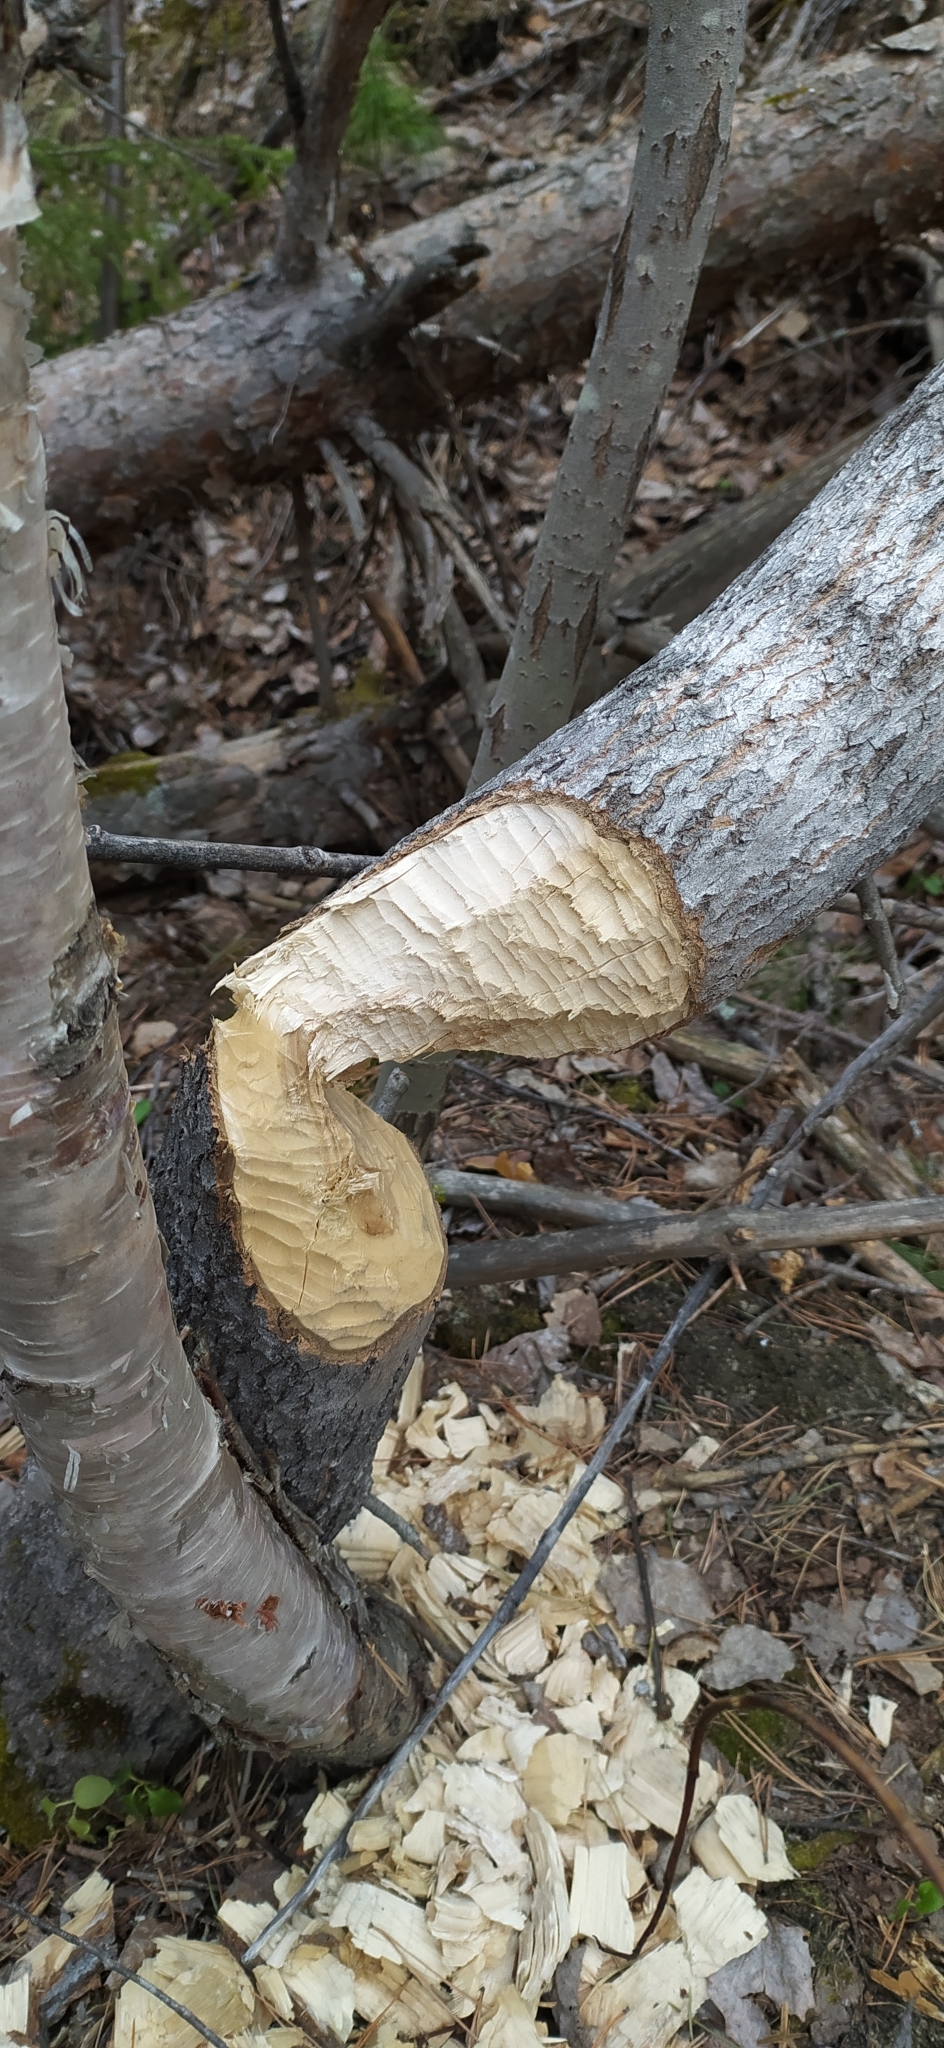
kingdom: Animalia
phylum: Chordata
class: Mammalia
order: Rodentia
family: Castoridae
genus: Castor
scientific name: Castor fiber
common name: Eurasian beaver
